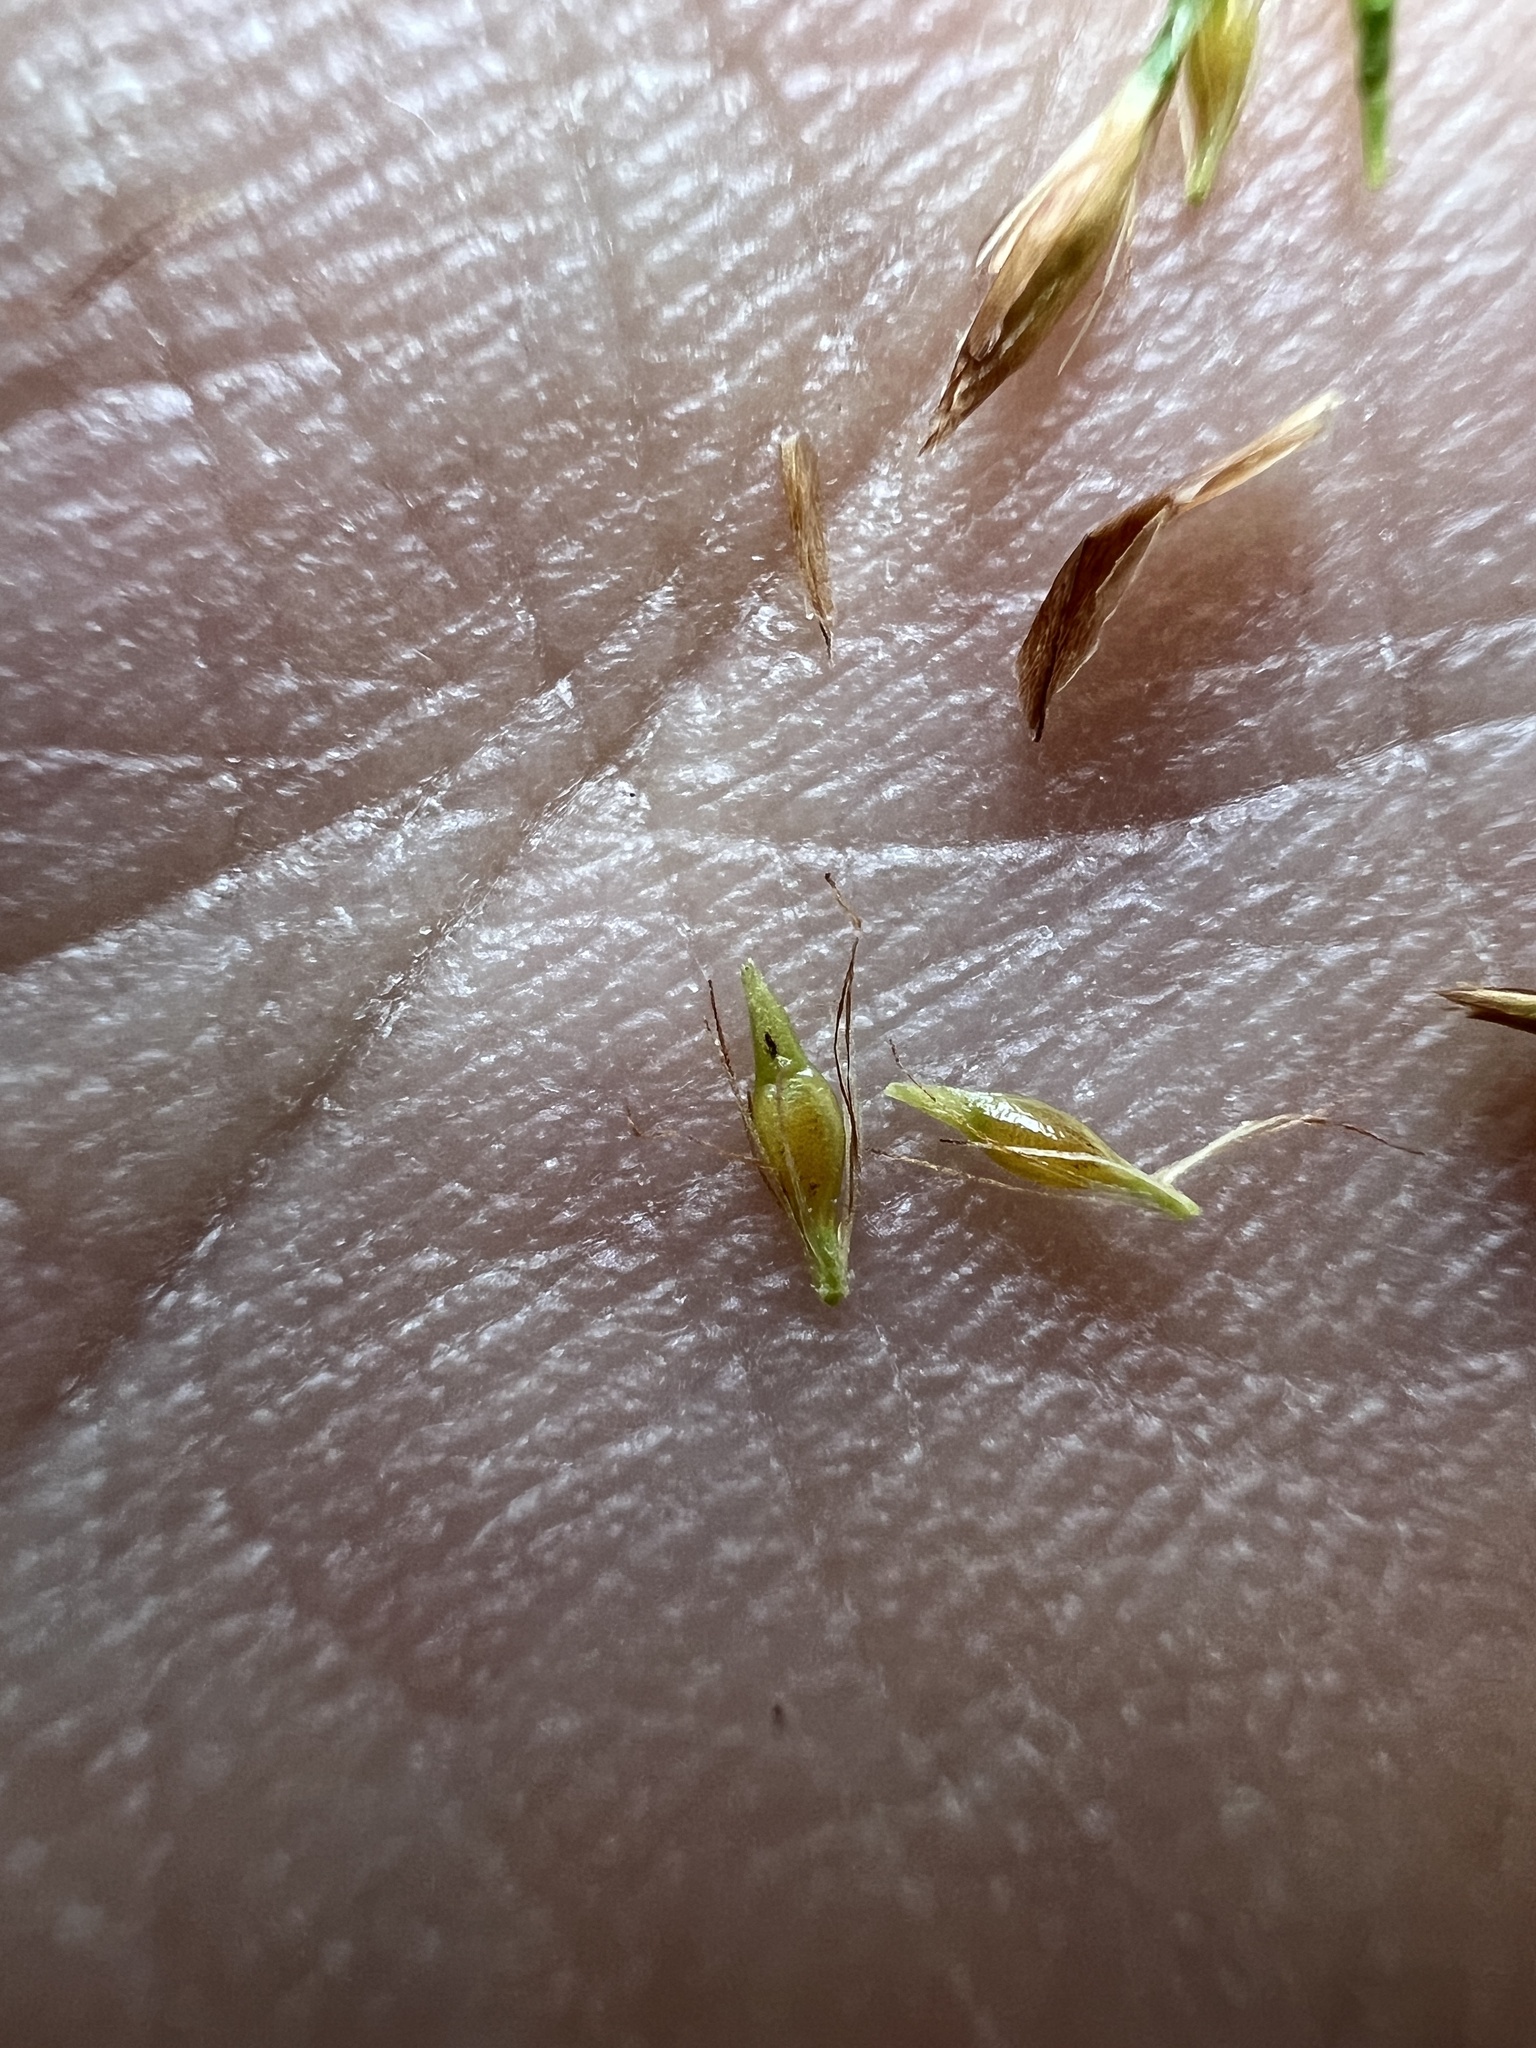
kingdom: Plantae
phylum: Tracheophyta
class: Liliopsida
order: Poales
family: Cyperaceae
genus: Rhynchospora
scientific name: Rhynchospora capillacea
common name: Capillary beakrush
